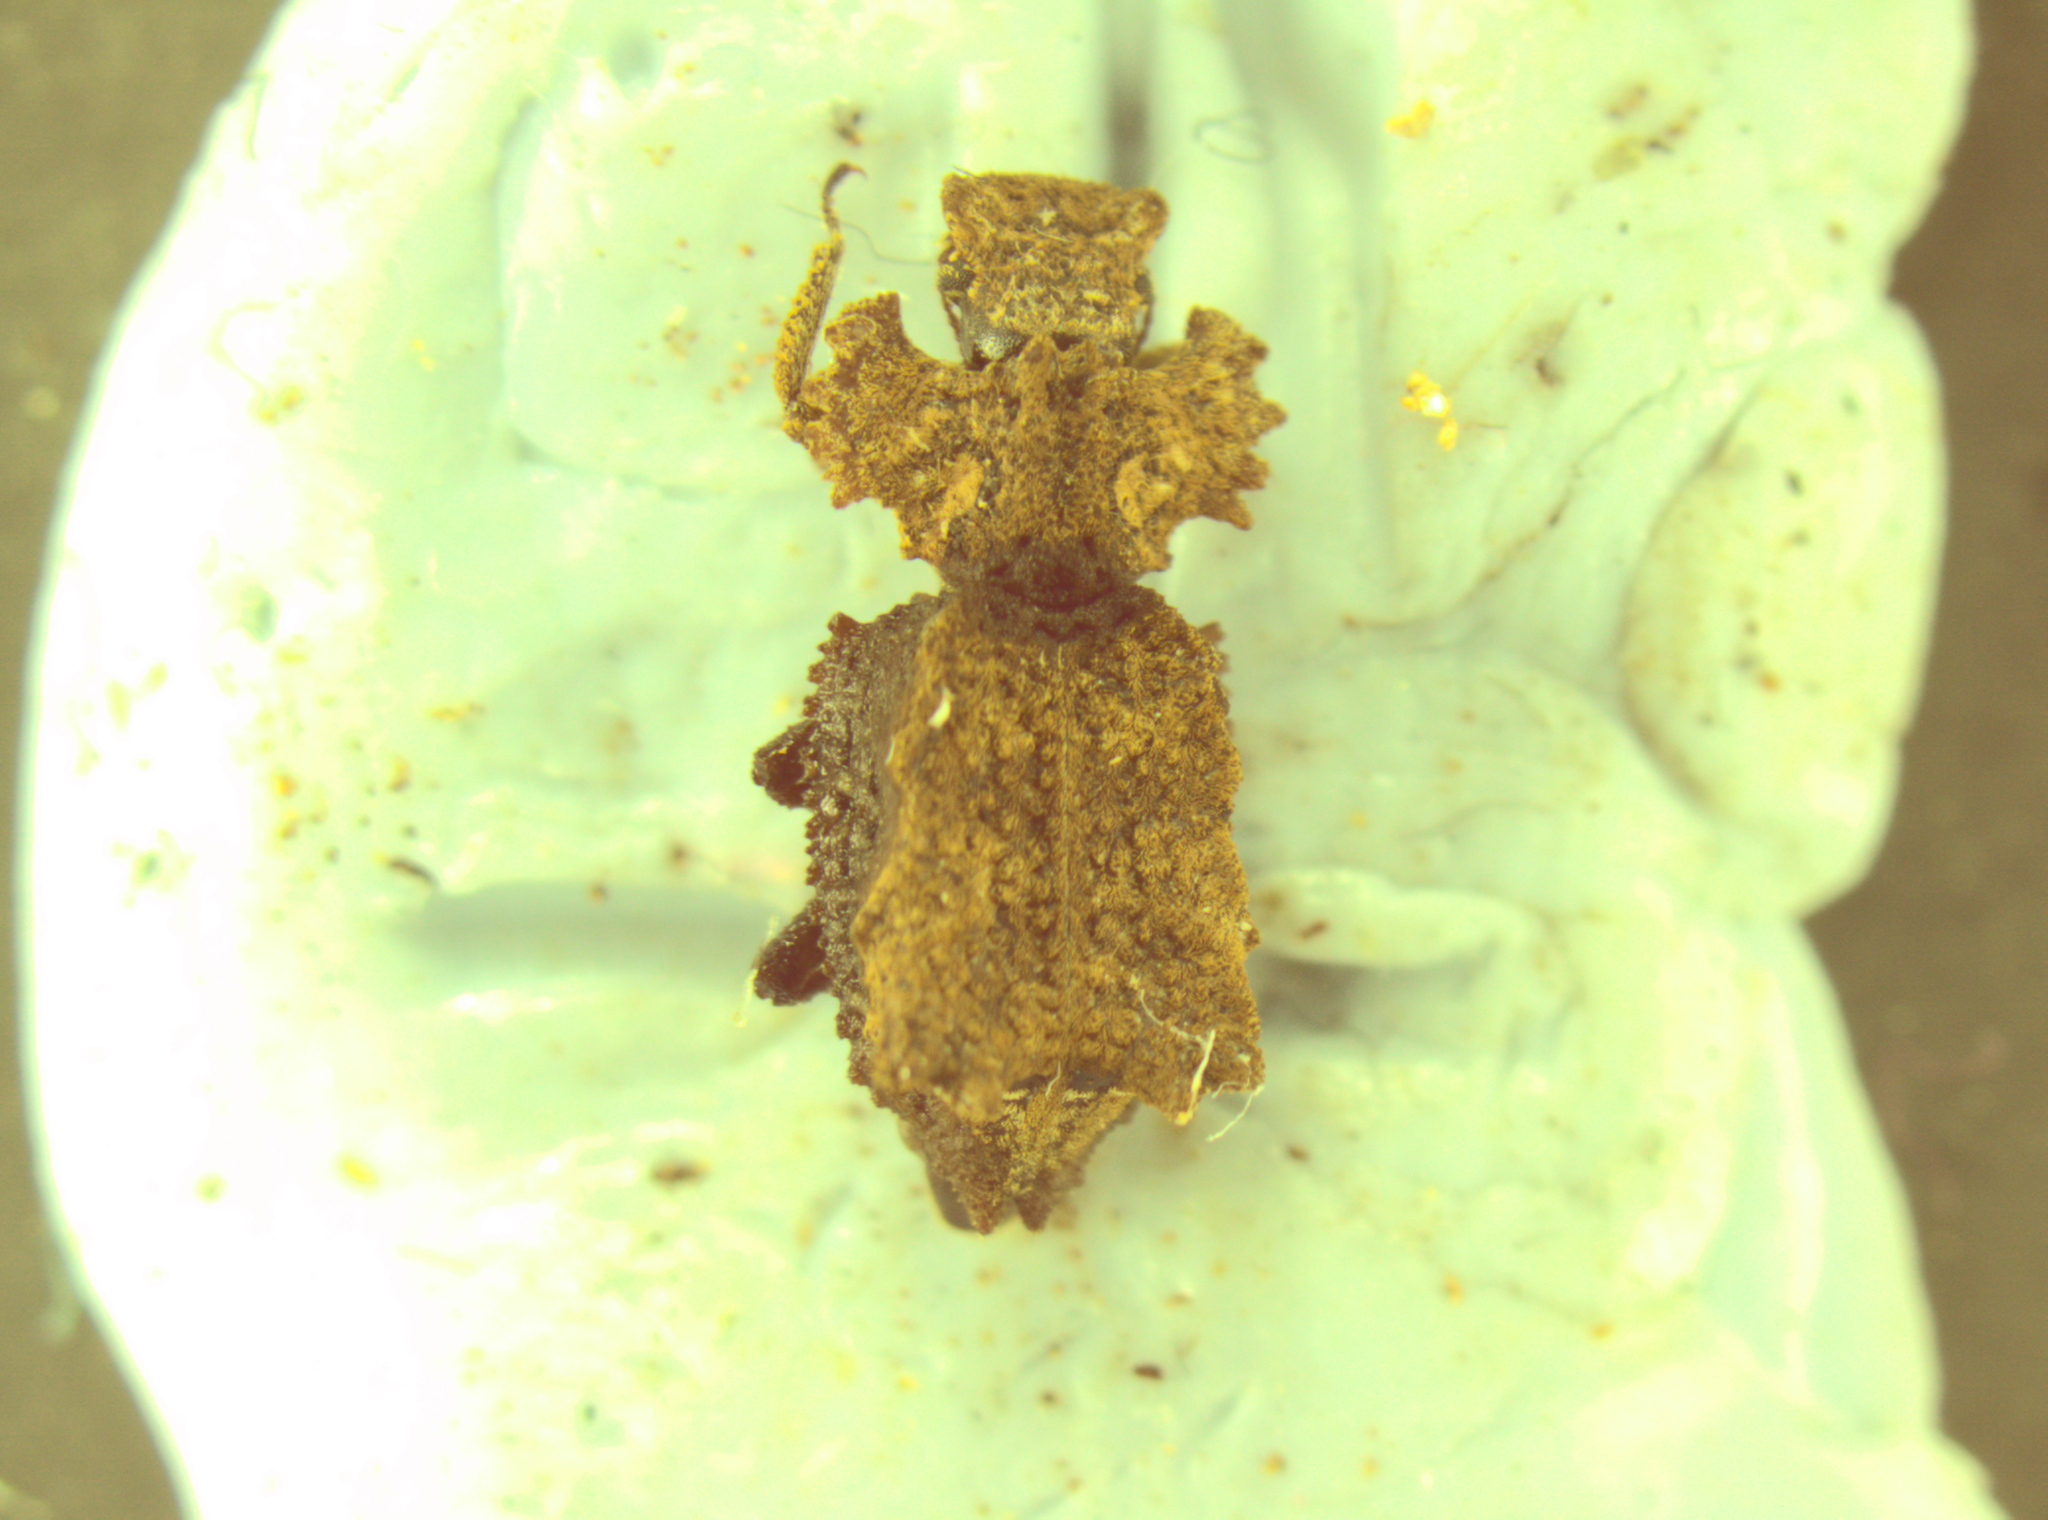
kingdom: Animalia
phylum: Arthropoda
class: Insecta
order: Coleoptera
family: Zopheridae
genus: Tarphiomimus
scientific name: Tarphiomimus
